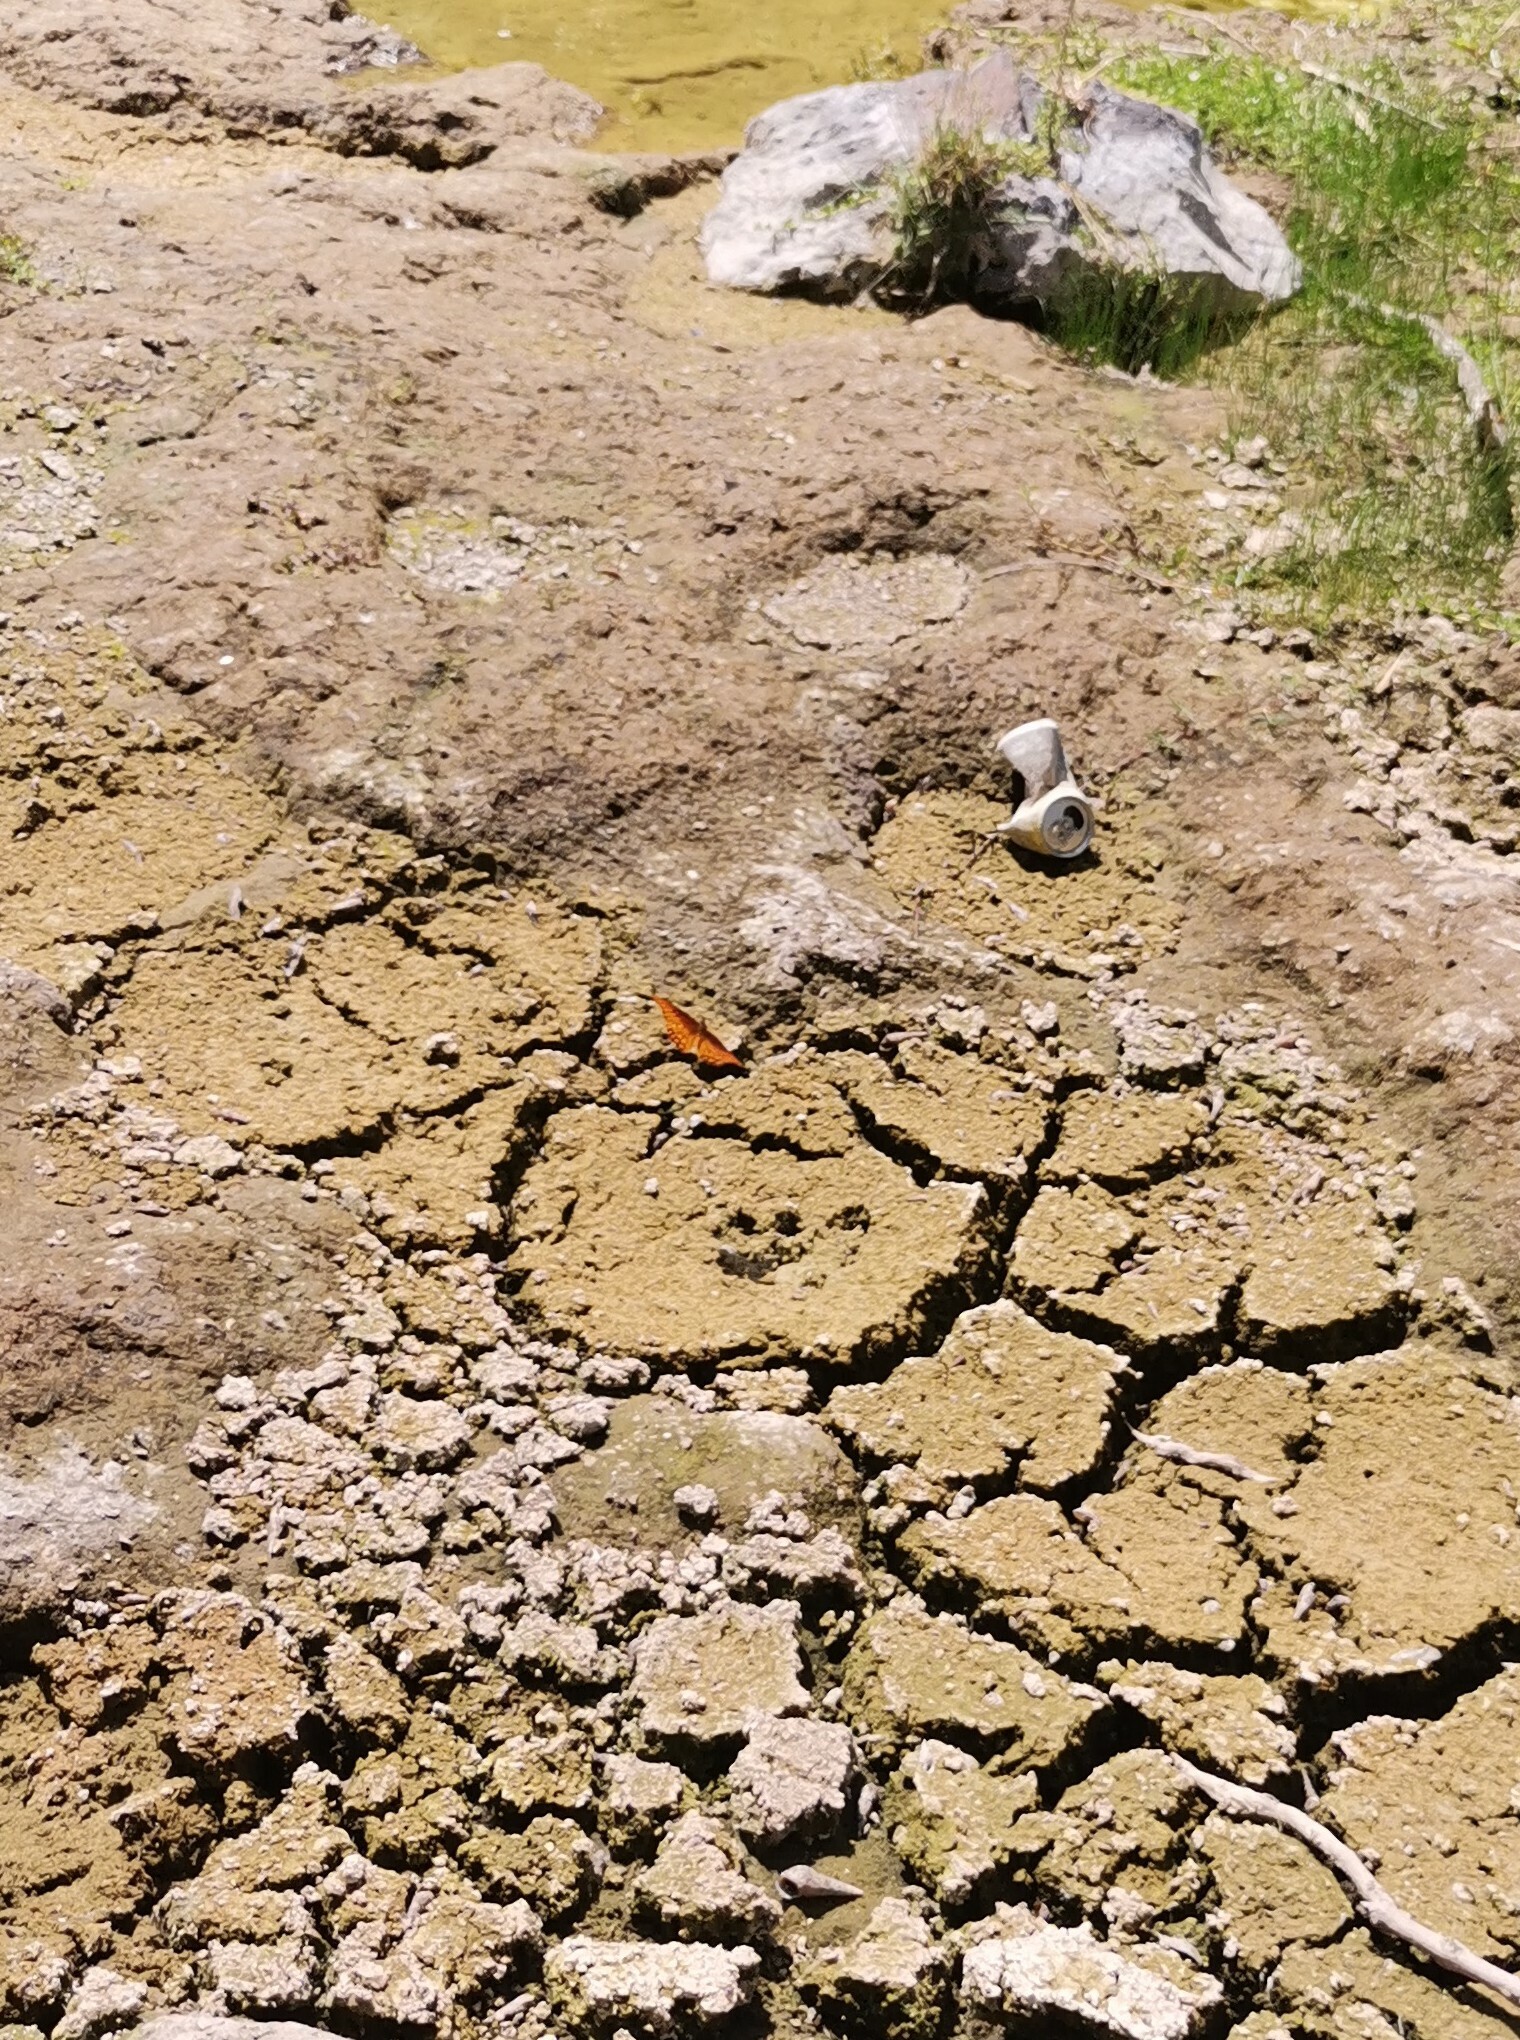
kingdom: Animalia
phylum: Arthropoda
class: Insecta
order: Lepidoptera
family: Nymphalidae
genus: Dione
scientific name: Dione moneta
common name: Mexican silverspot
